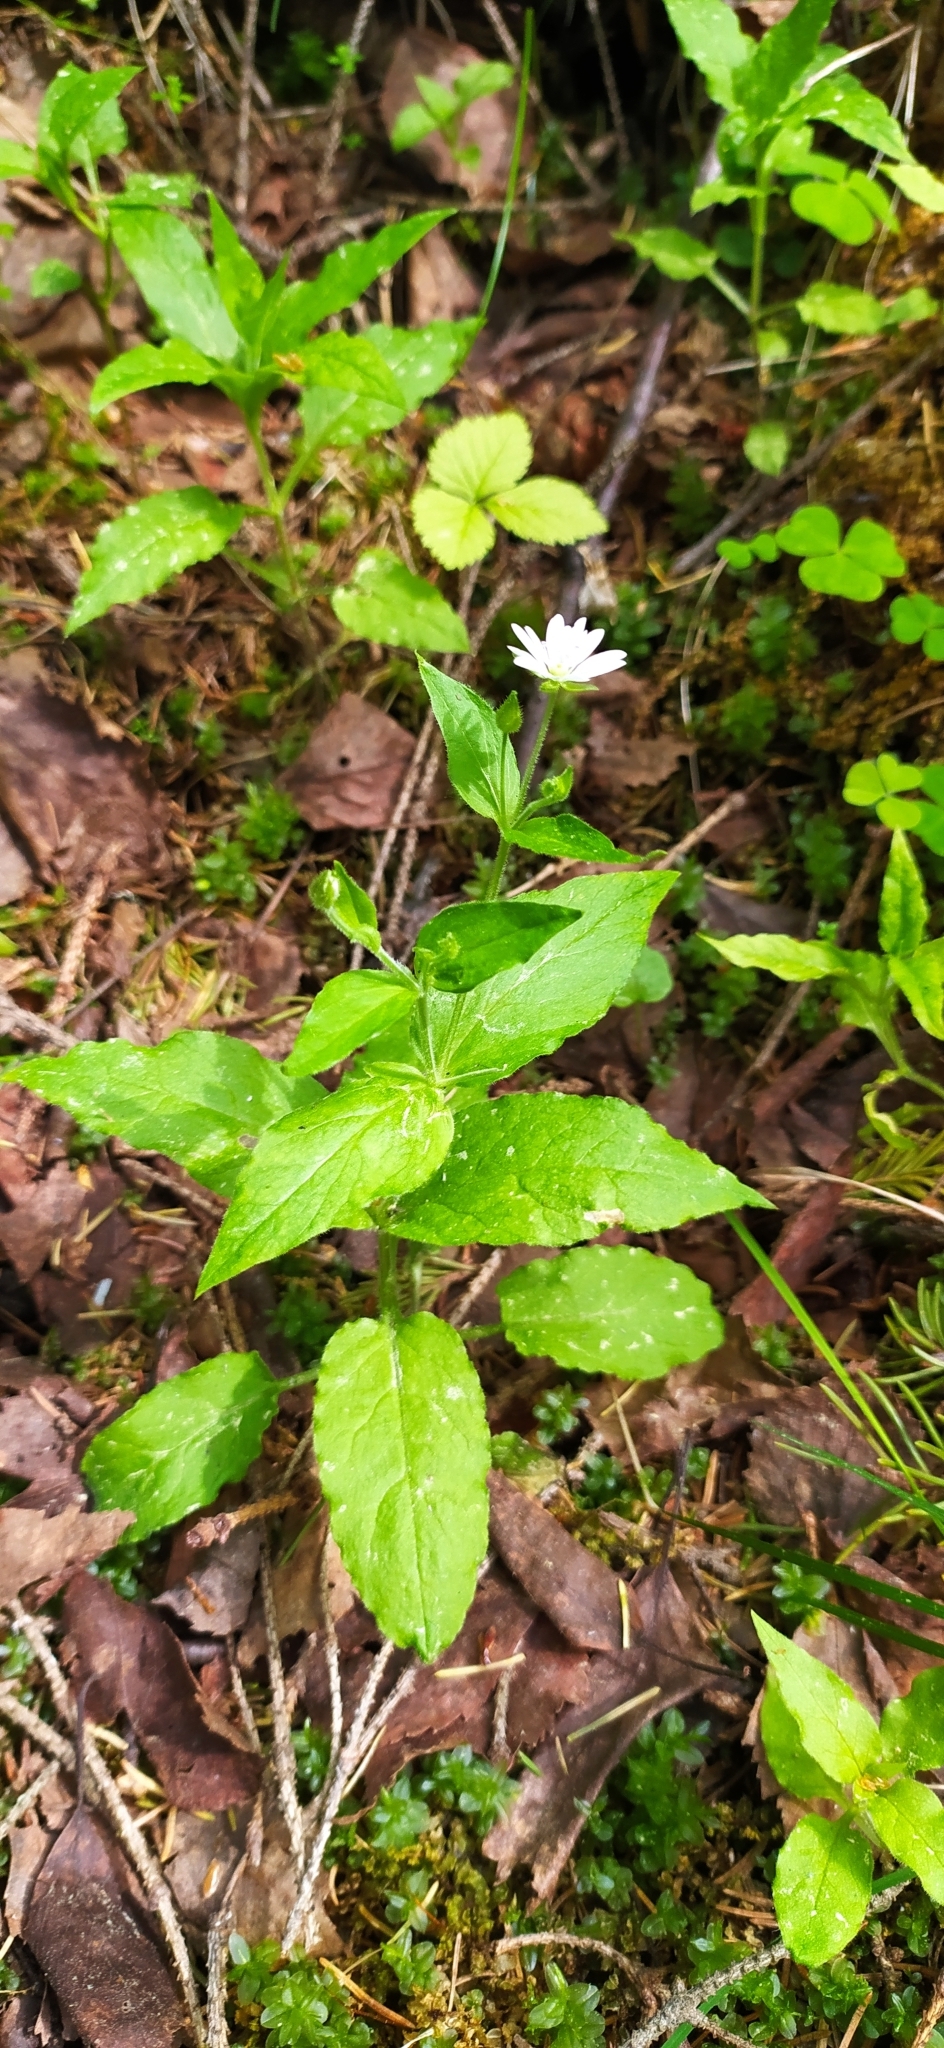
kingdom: Plantae
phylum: Tracheophyta
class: Magnoliopsida
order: Caryophyllales
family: Caryophyllaceae
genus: Stellaria
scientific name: Stellaria bungeana
